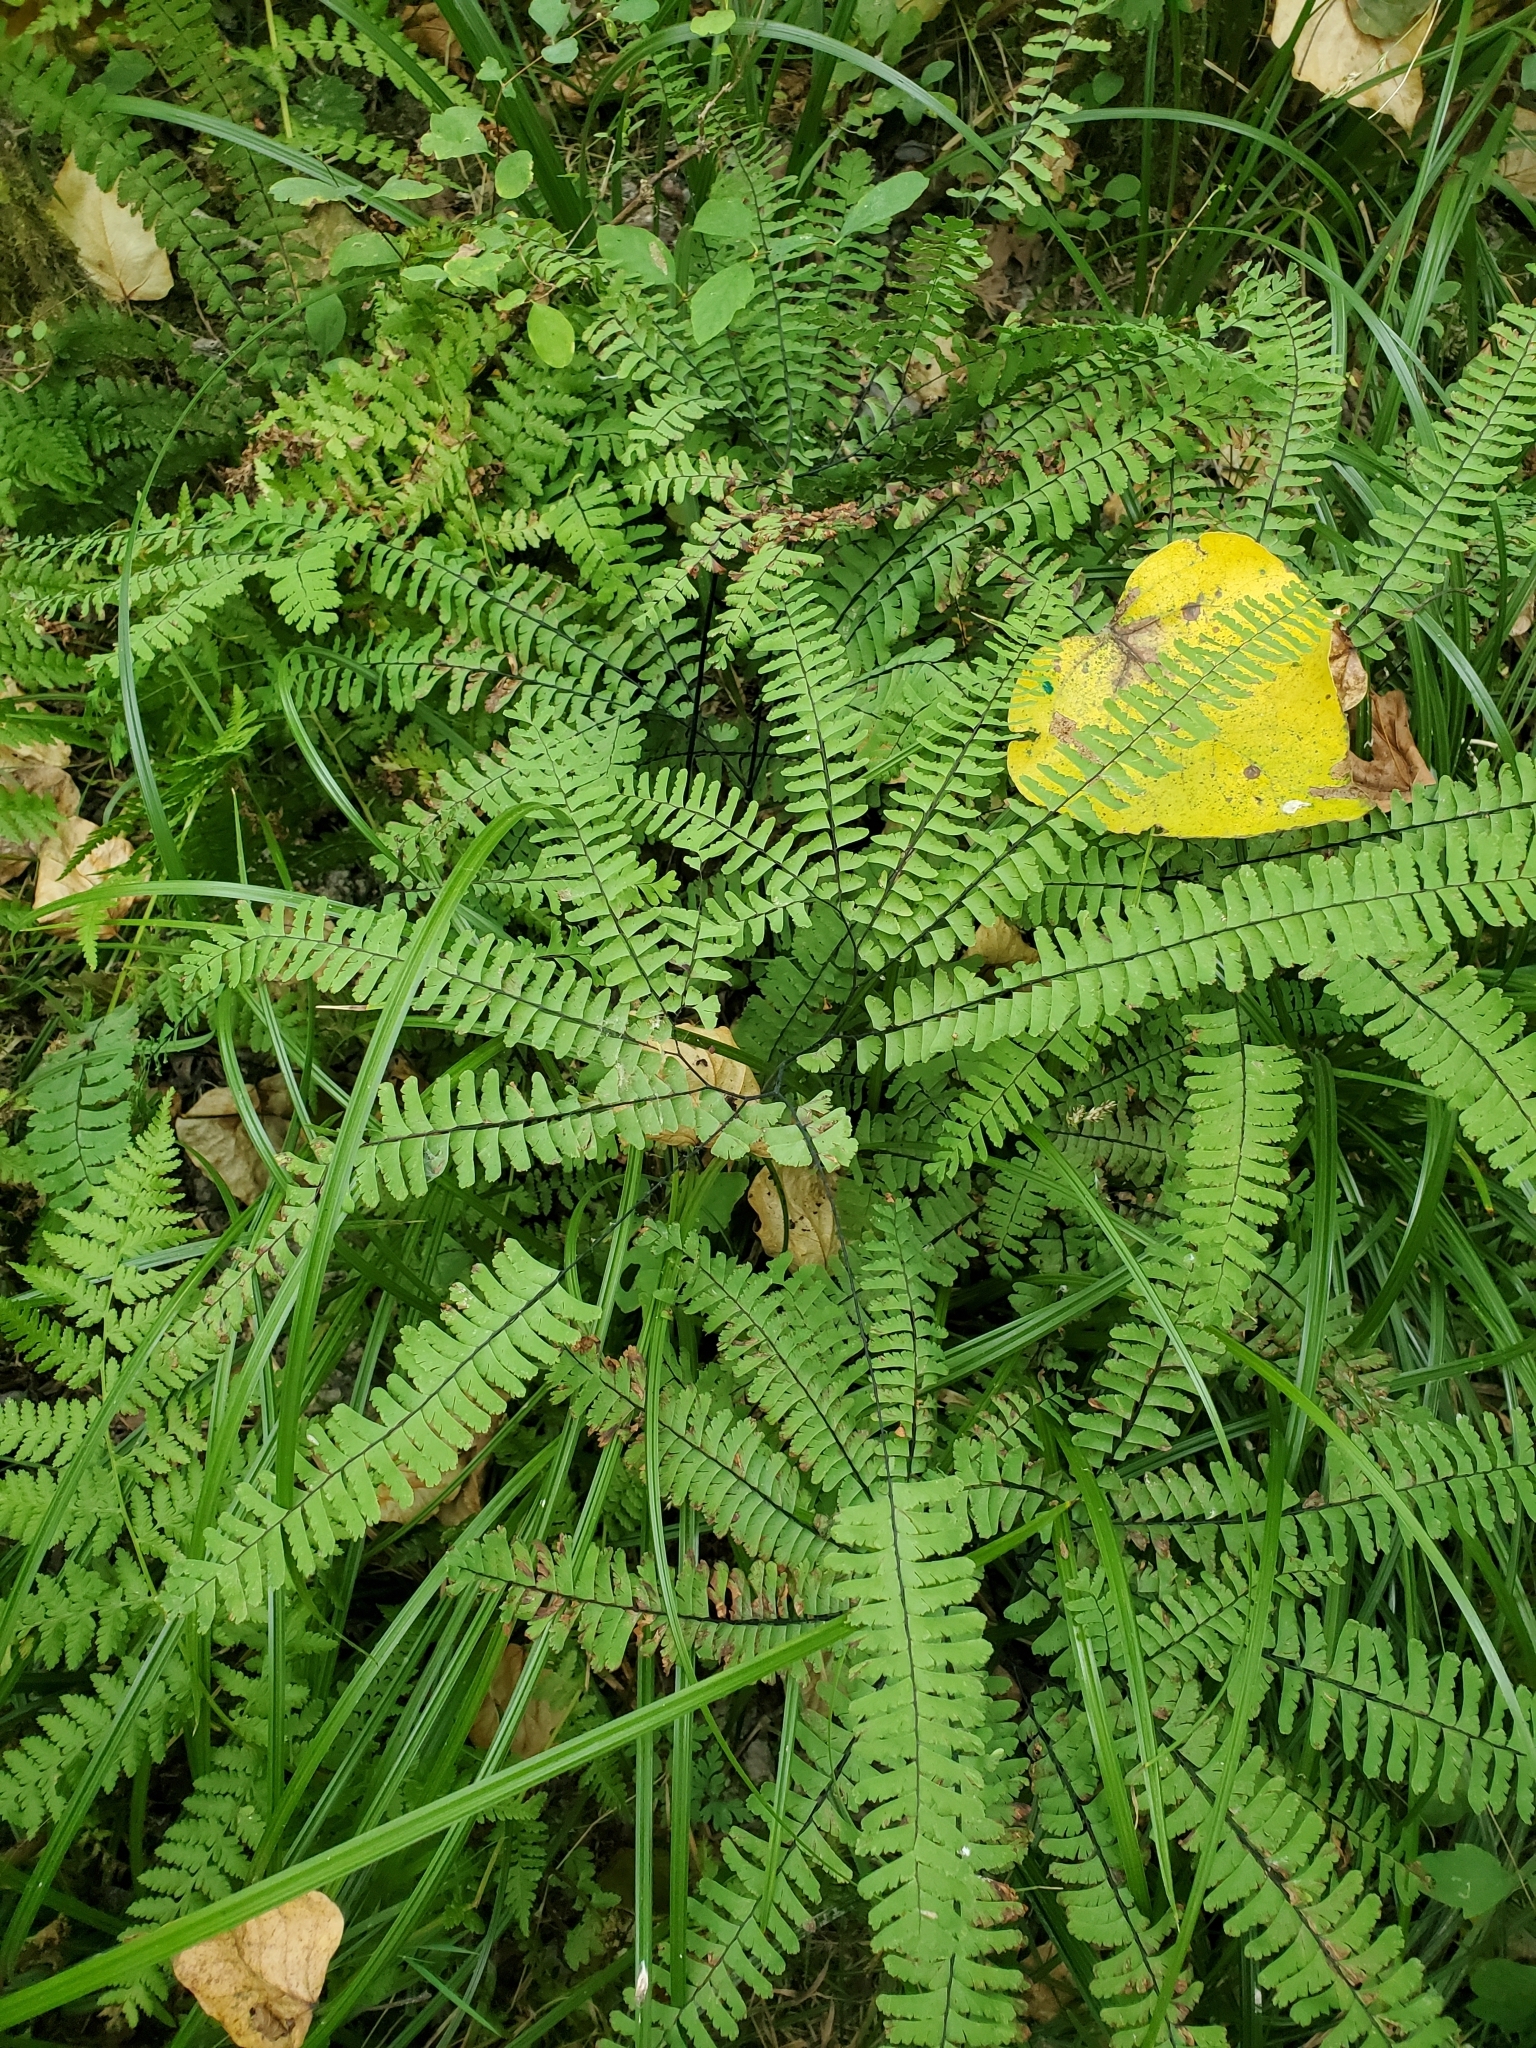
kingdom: Plantae
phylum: Tracheophyta
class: Polypodiopsida
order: Polypodiales
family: Pteridaceae
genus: Adiantum
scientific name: Adiantum aleuticum
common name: Aleutian maidenhair fern
